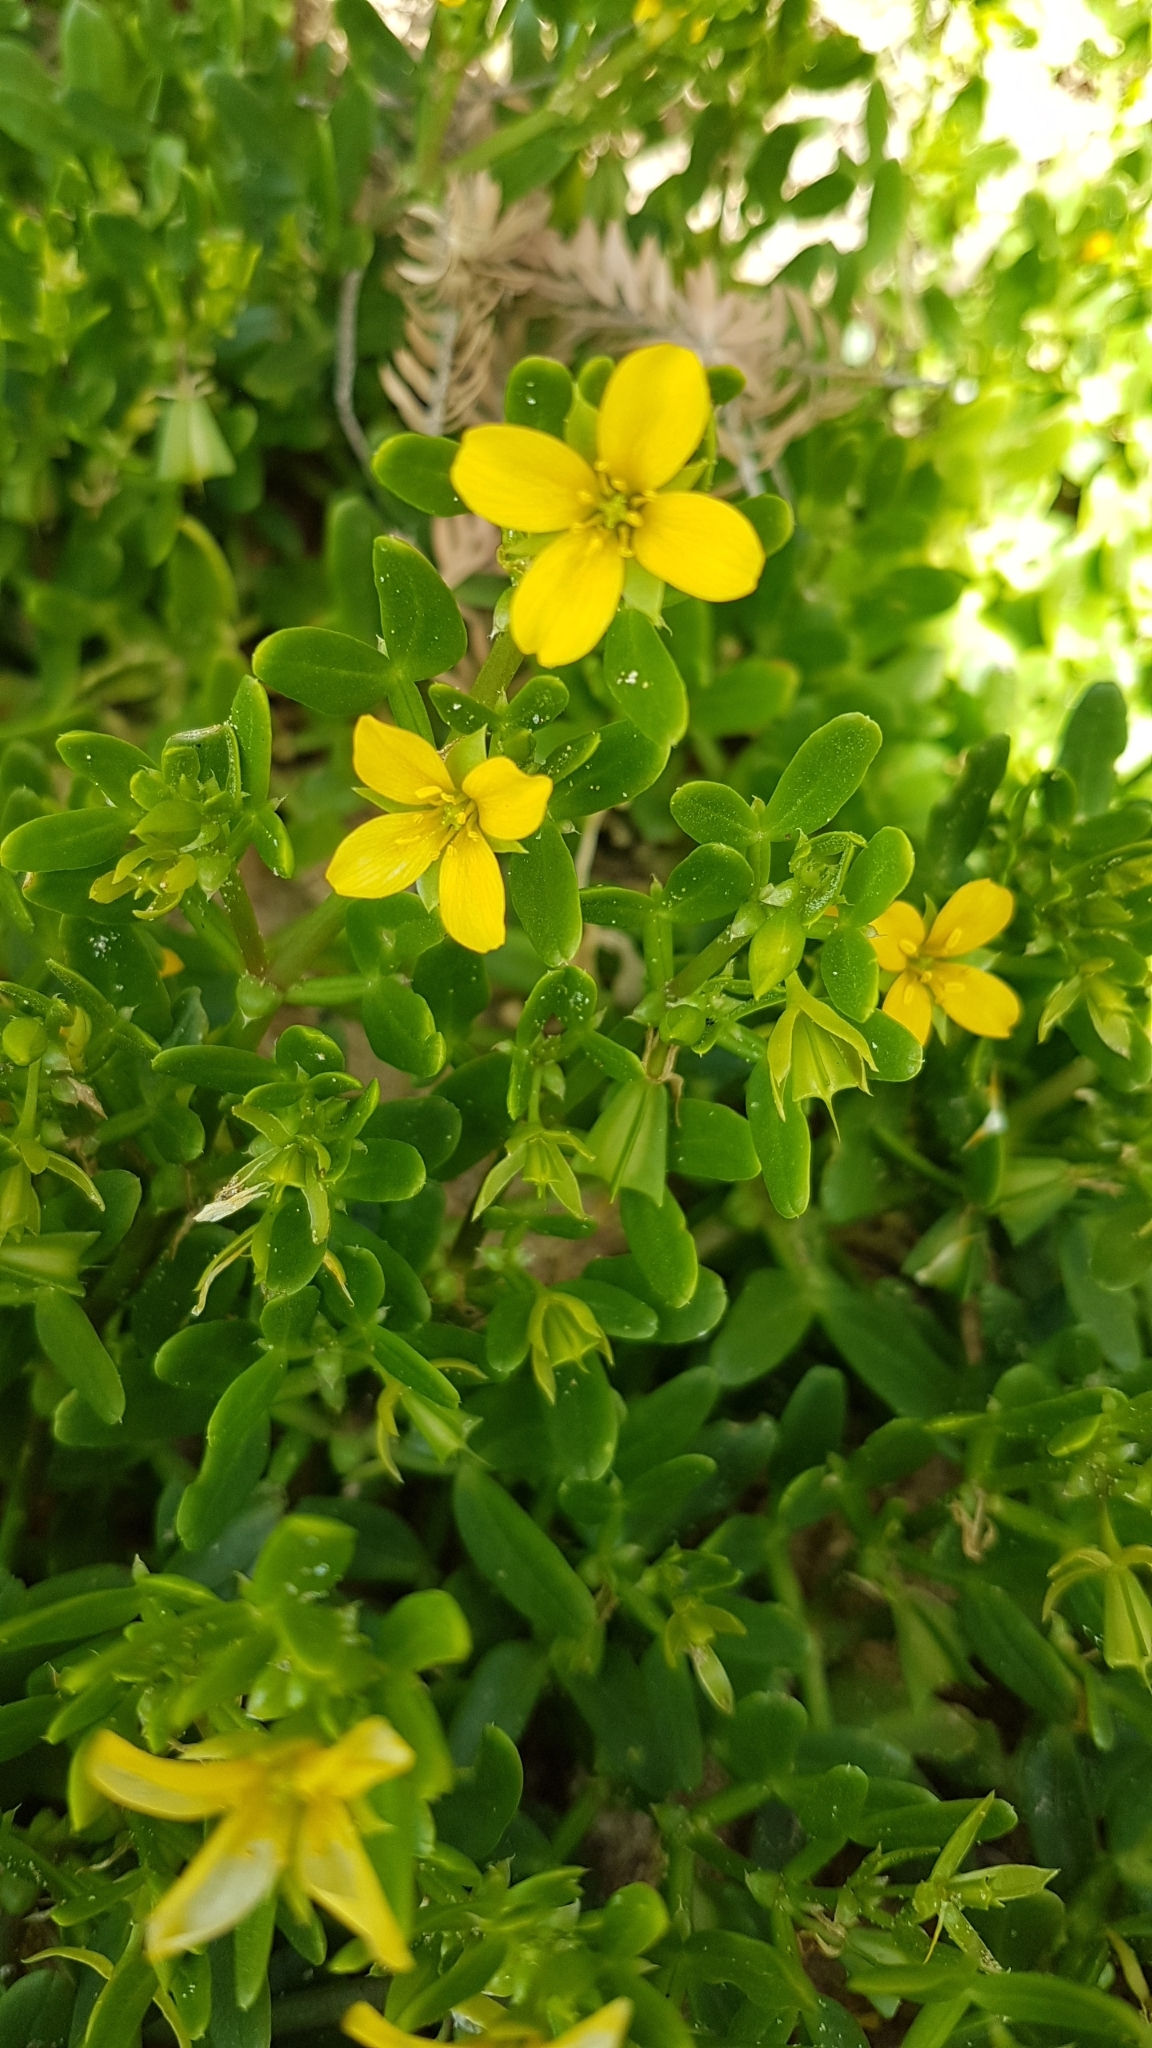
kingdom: Plantae
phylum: Tracheophyta
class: Magnoliopsida
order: Zygophyllales
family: Zygophyllaceae
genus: Roepera
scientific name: Roepera billardieri
